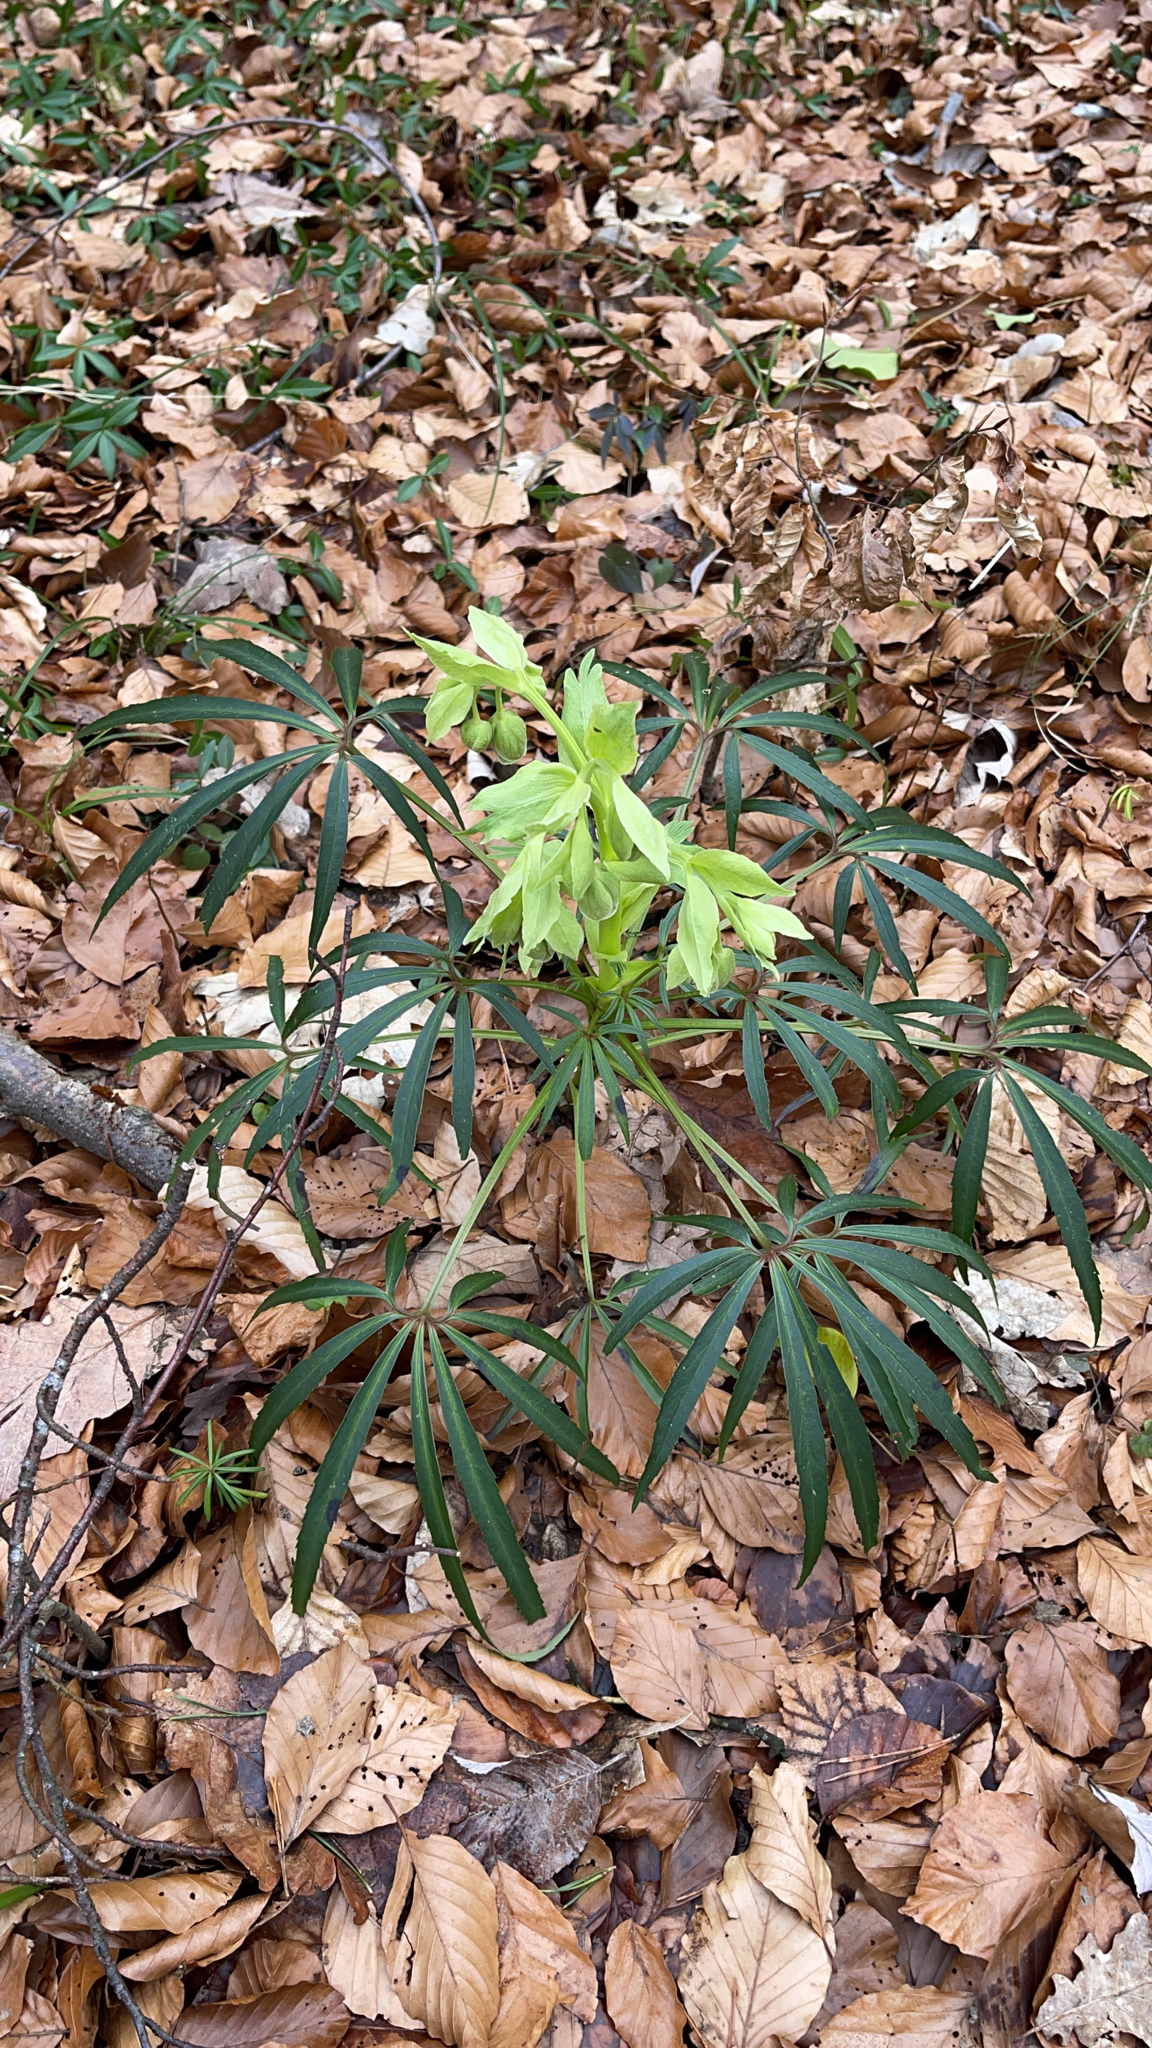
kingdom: Plantae
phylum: Tracheophyta
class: Magnoliopsida
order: Ranunculales
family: Ranunculaceae
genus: Helleborus
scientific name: Helleborus foetidus
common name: Stinking hellebore
